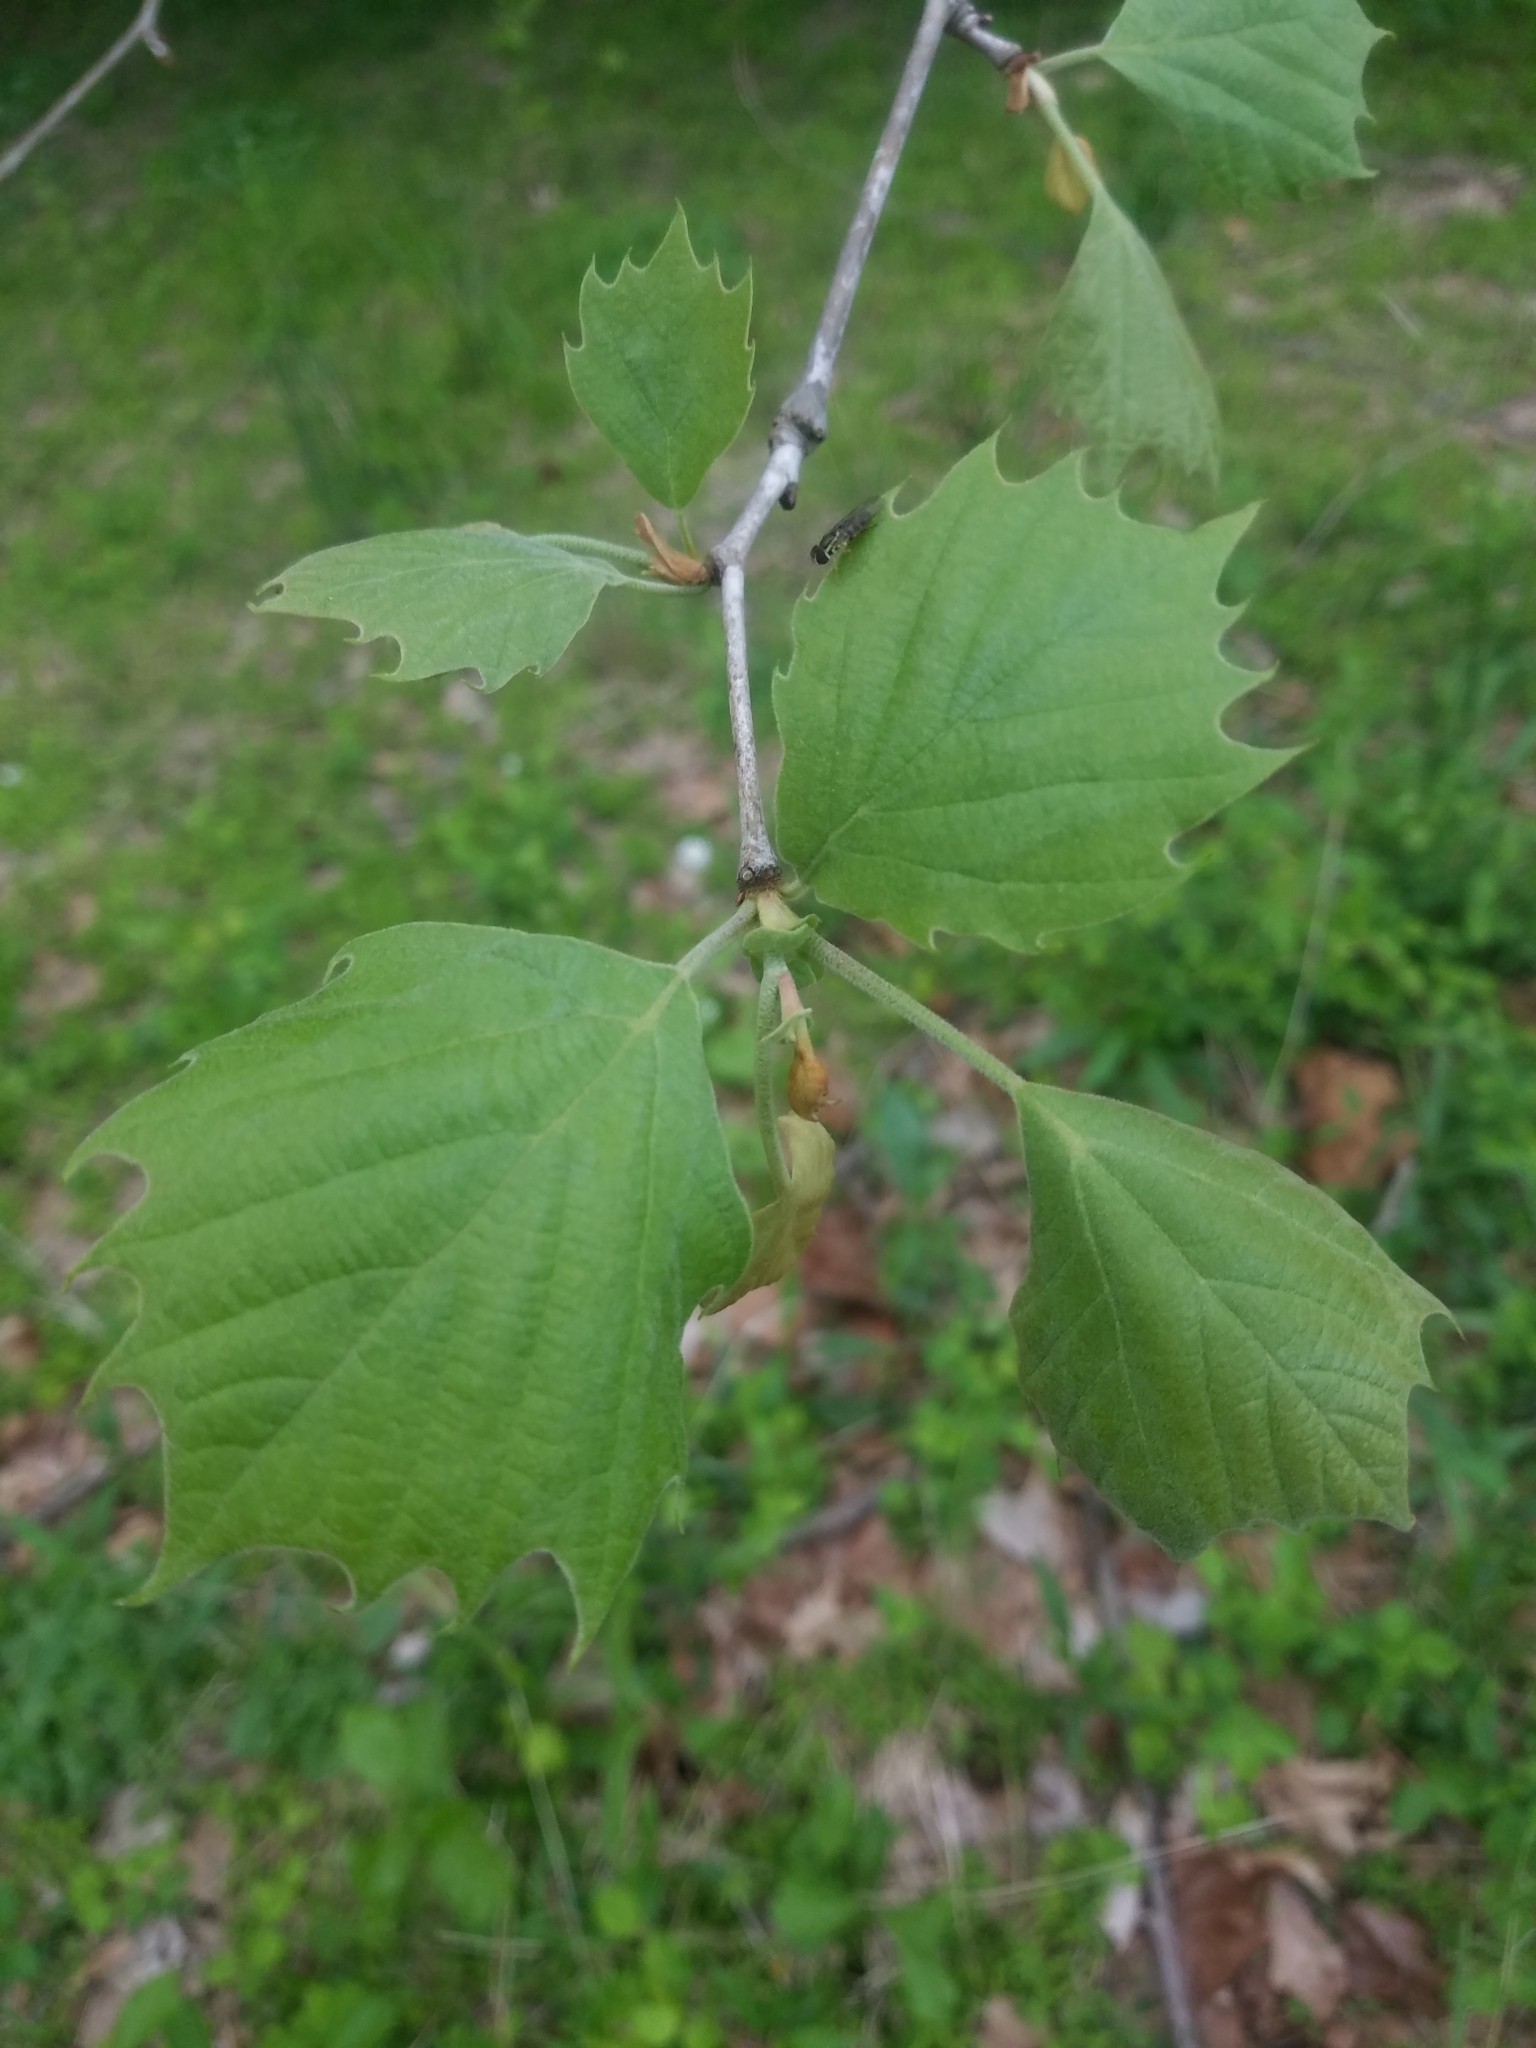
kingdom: Plantae
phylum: Tracheophyta
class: Magnoliopsida
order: Proteales
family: Platanaceae
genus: Platanus
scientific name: Platanus occidentalis
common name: American sycamore
